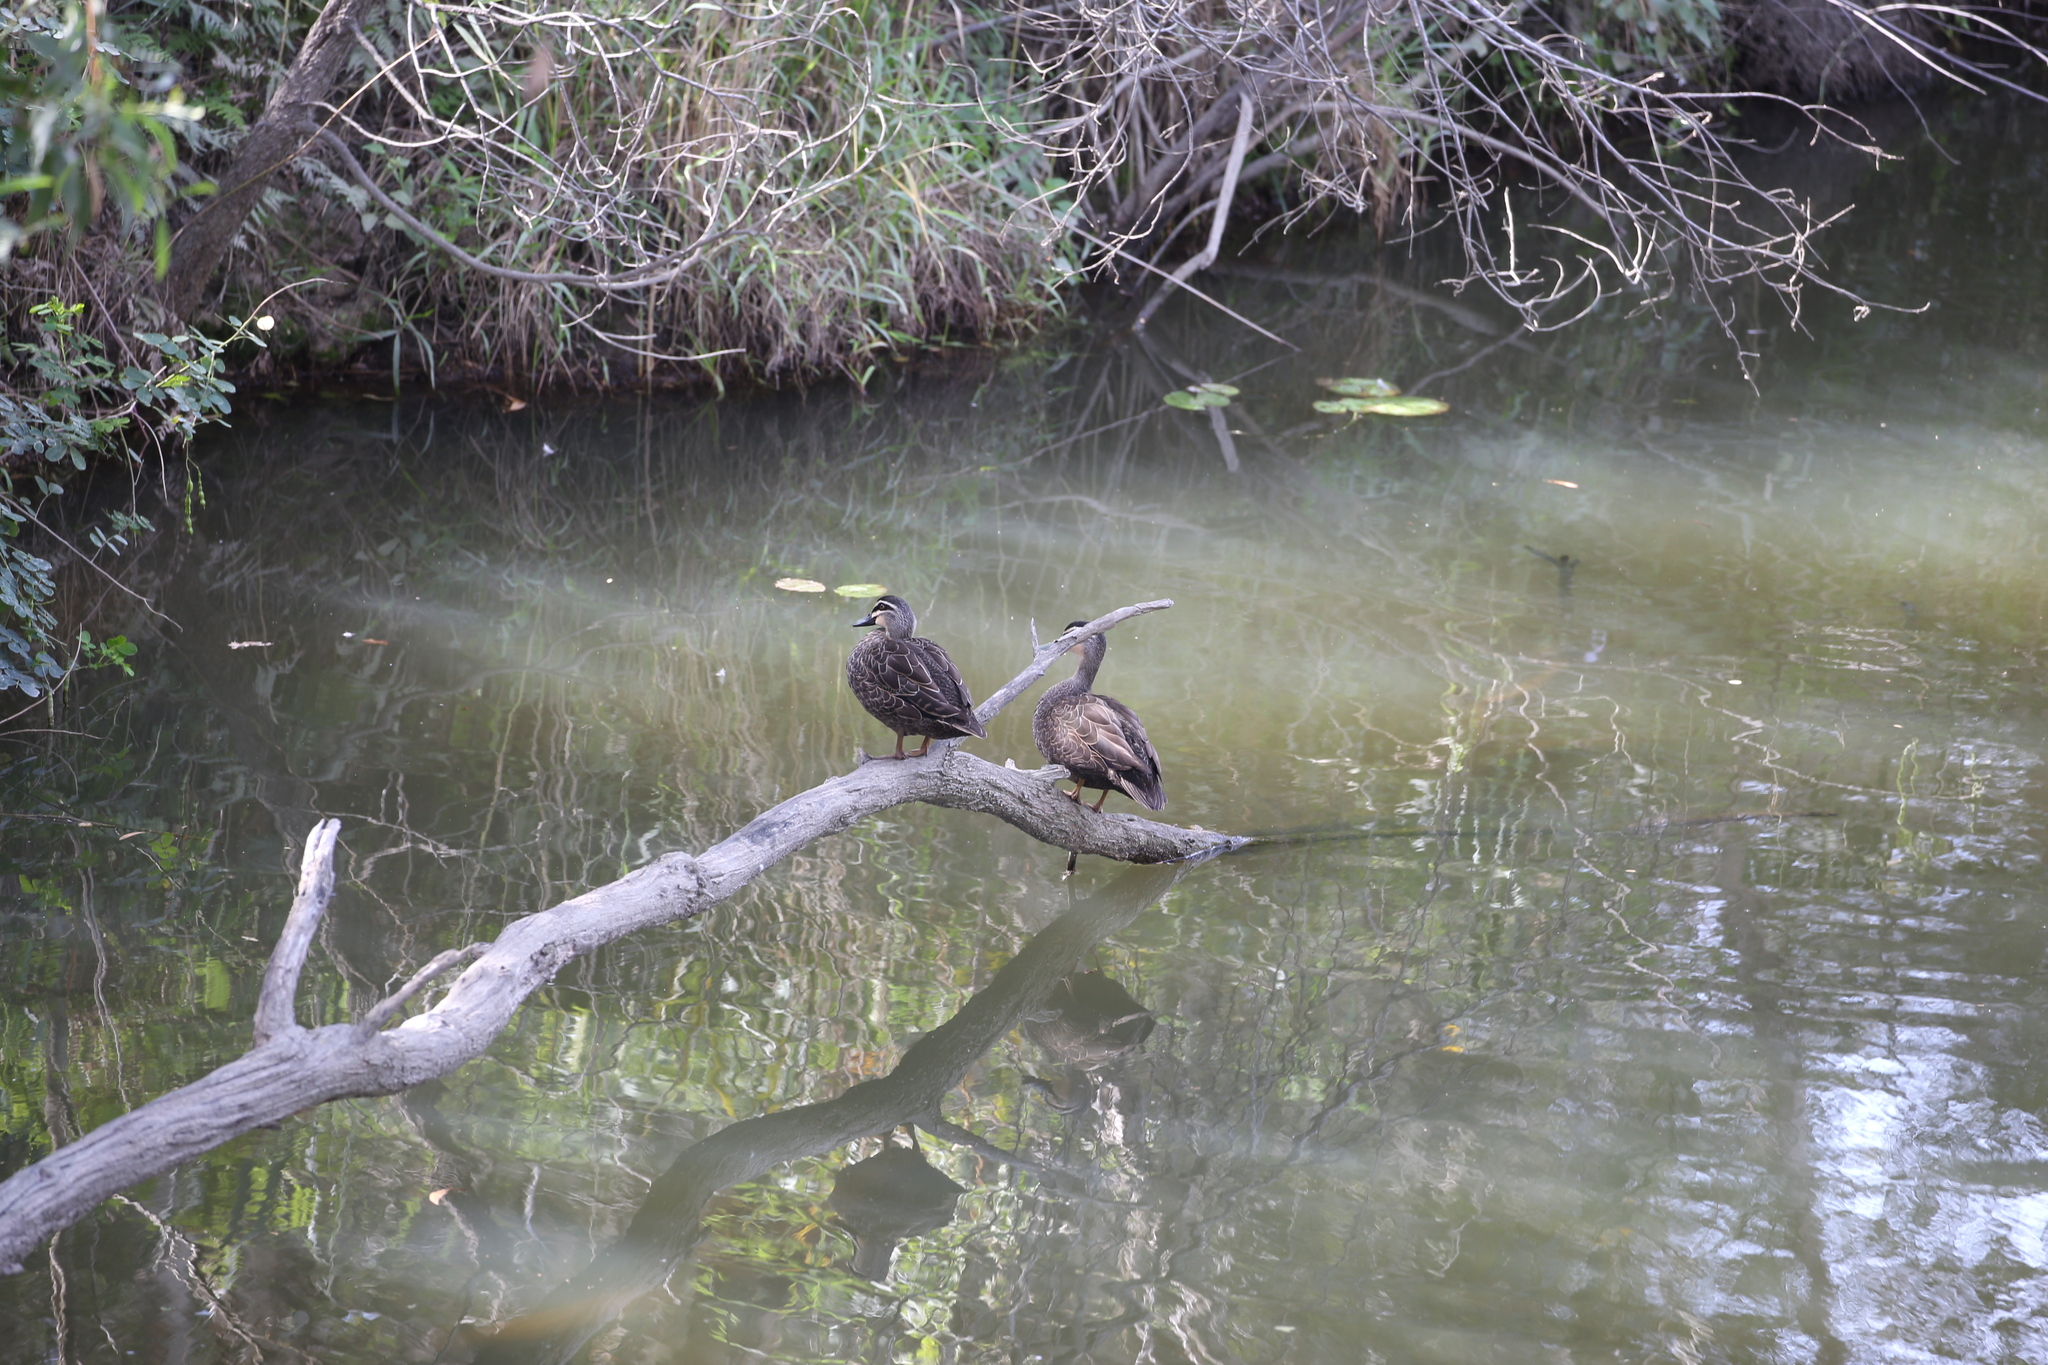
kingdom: Animalia
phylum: Chordata
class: Aves
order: Anseriformes
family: Anatidae
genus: Anas
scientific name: Anas superciliosa
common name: Pacific black duck
